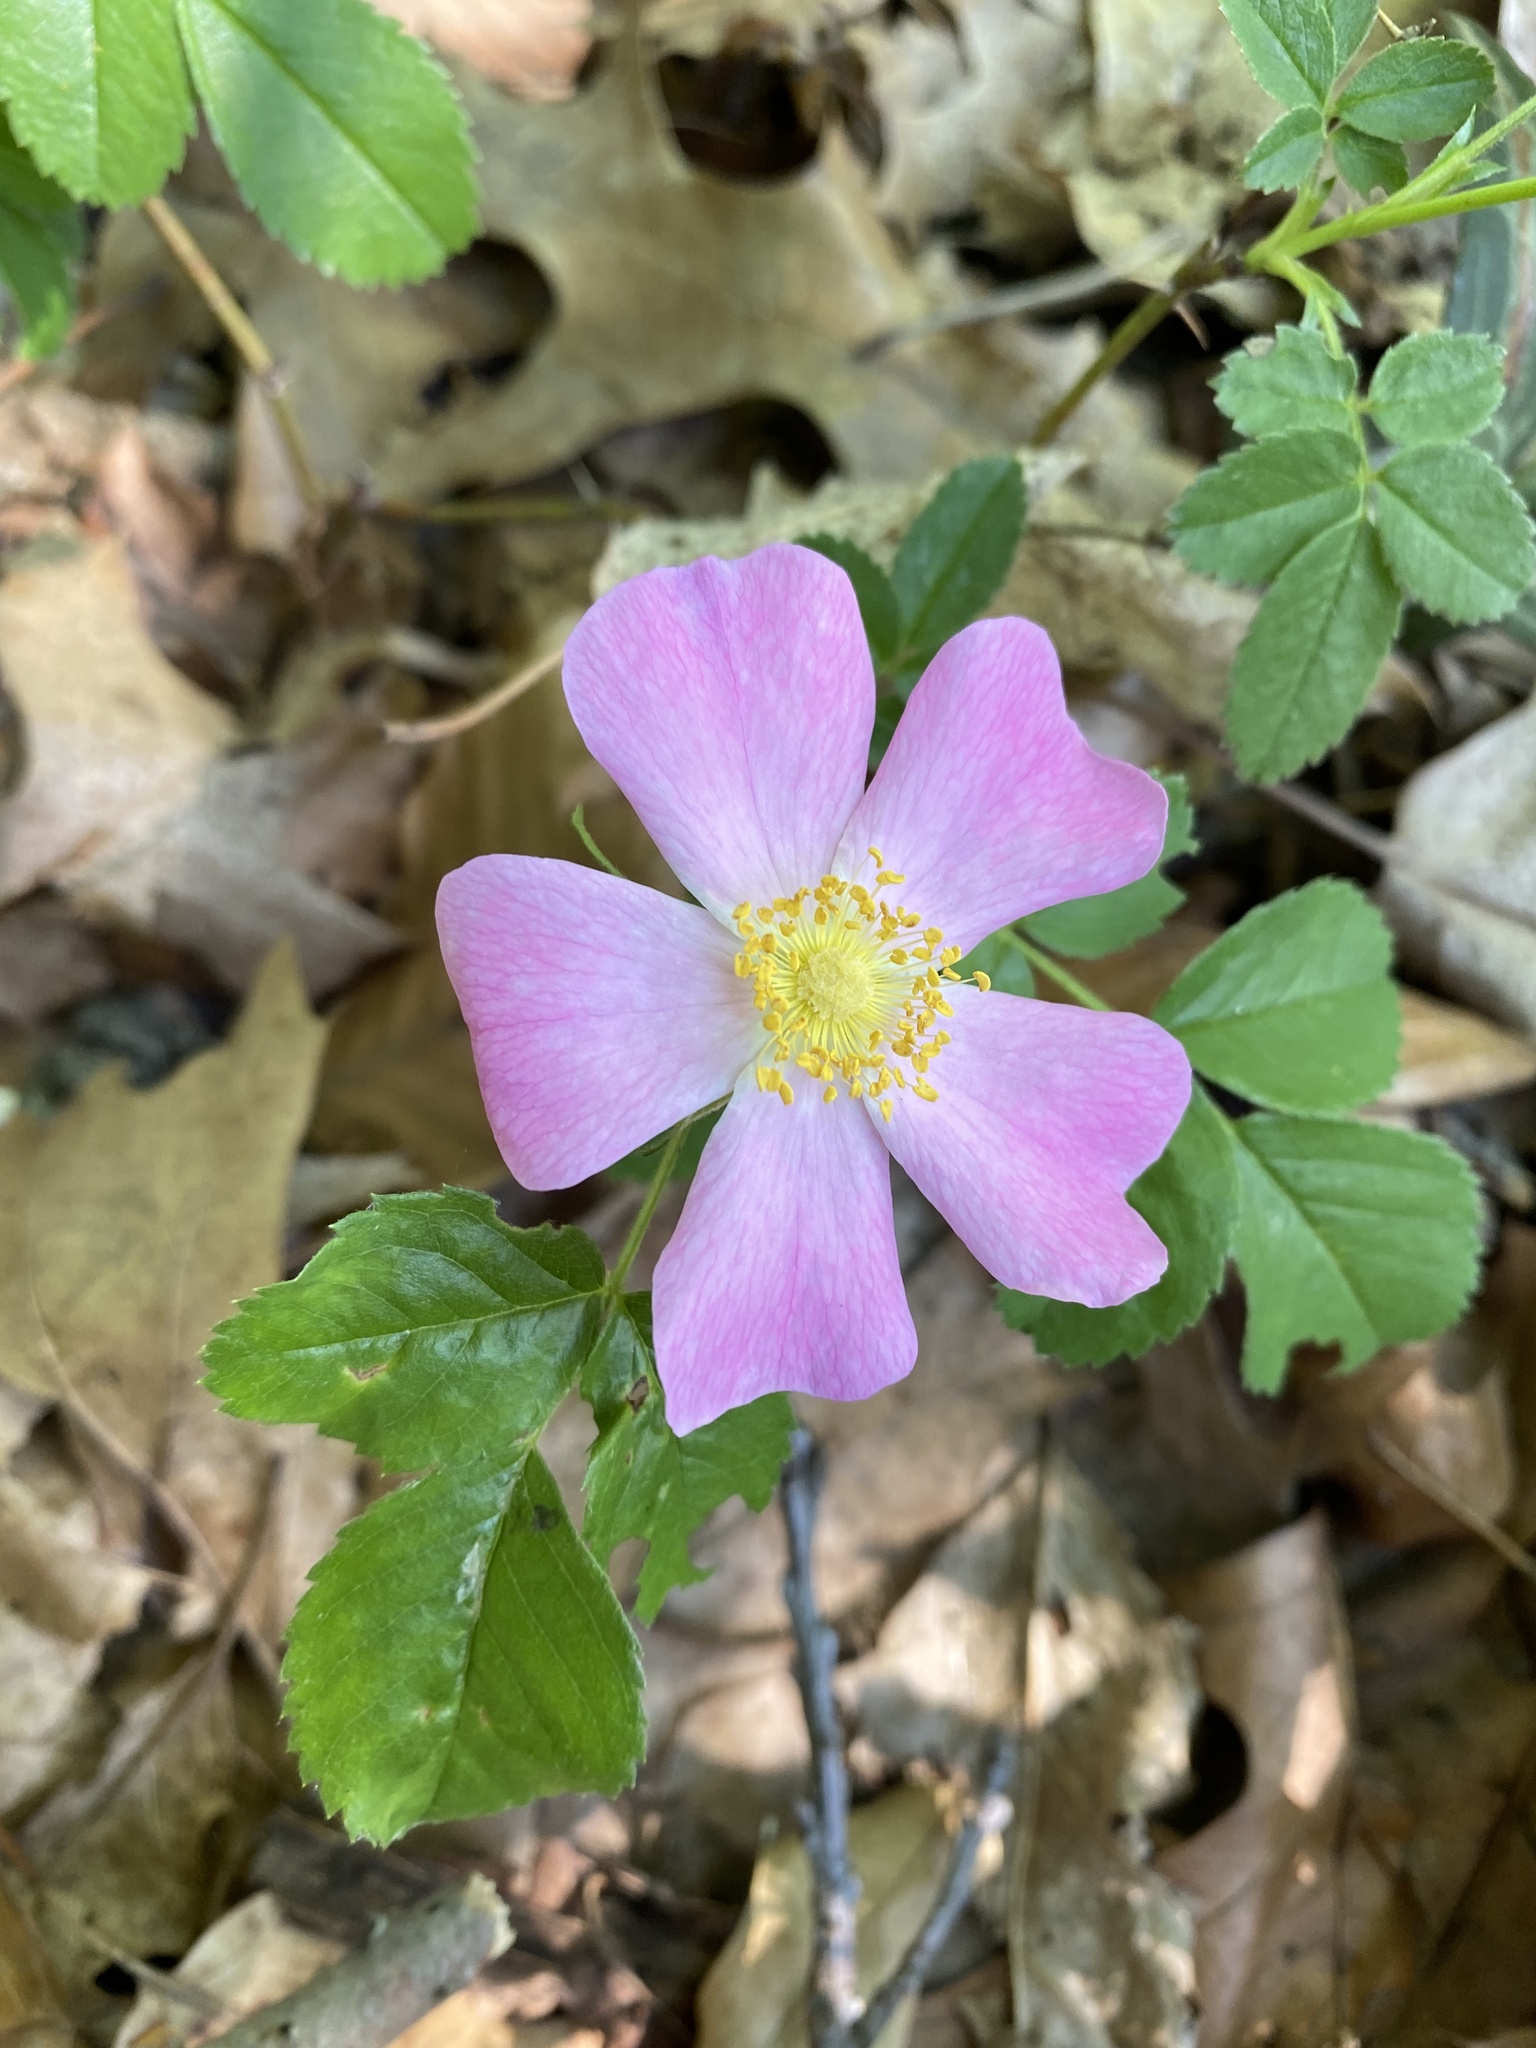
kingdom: Plantae
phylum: Tracheophyta
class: Magnoliopsida
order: Rosales
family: Rosaceae
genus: Rosa
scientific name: Rosa carolina
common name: Pasture rose
